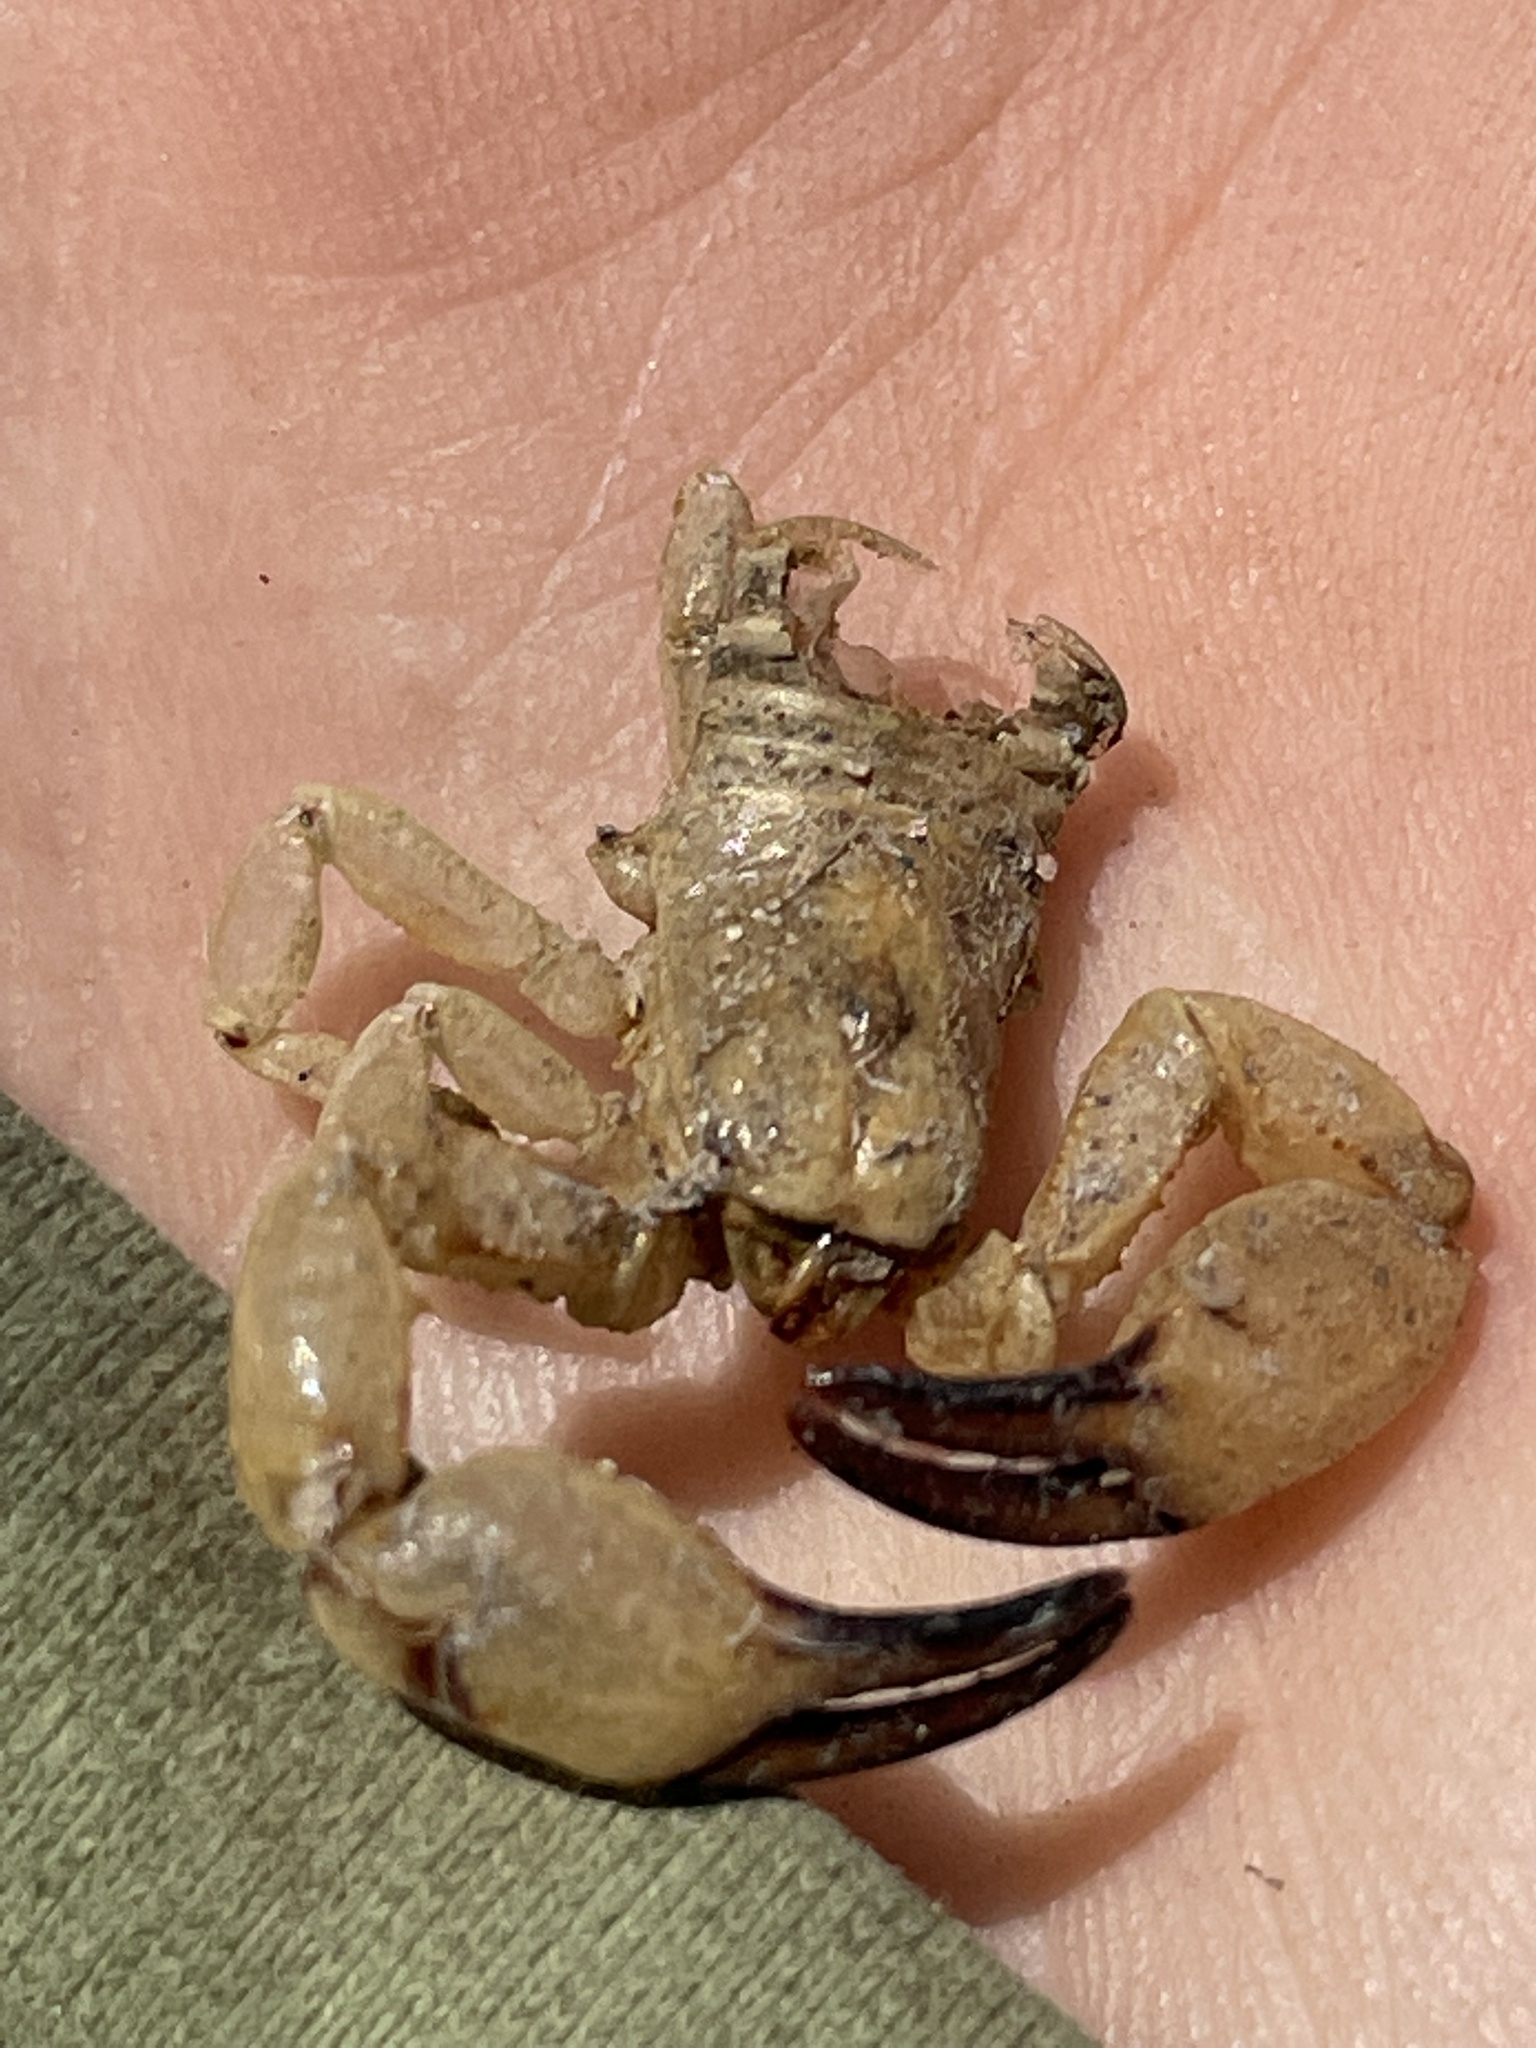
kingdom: Animalia
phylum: Arthropoda
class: Arachnida
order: Scorpiones
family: Chactidae
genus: Anuroctonus
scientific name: Anuroctonus phaiodactylus
